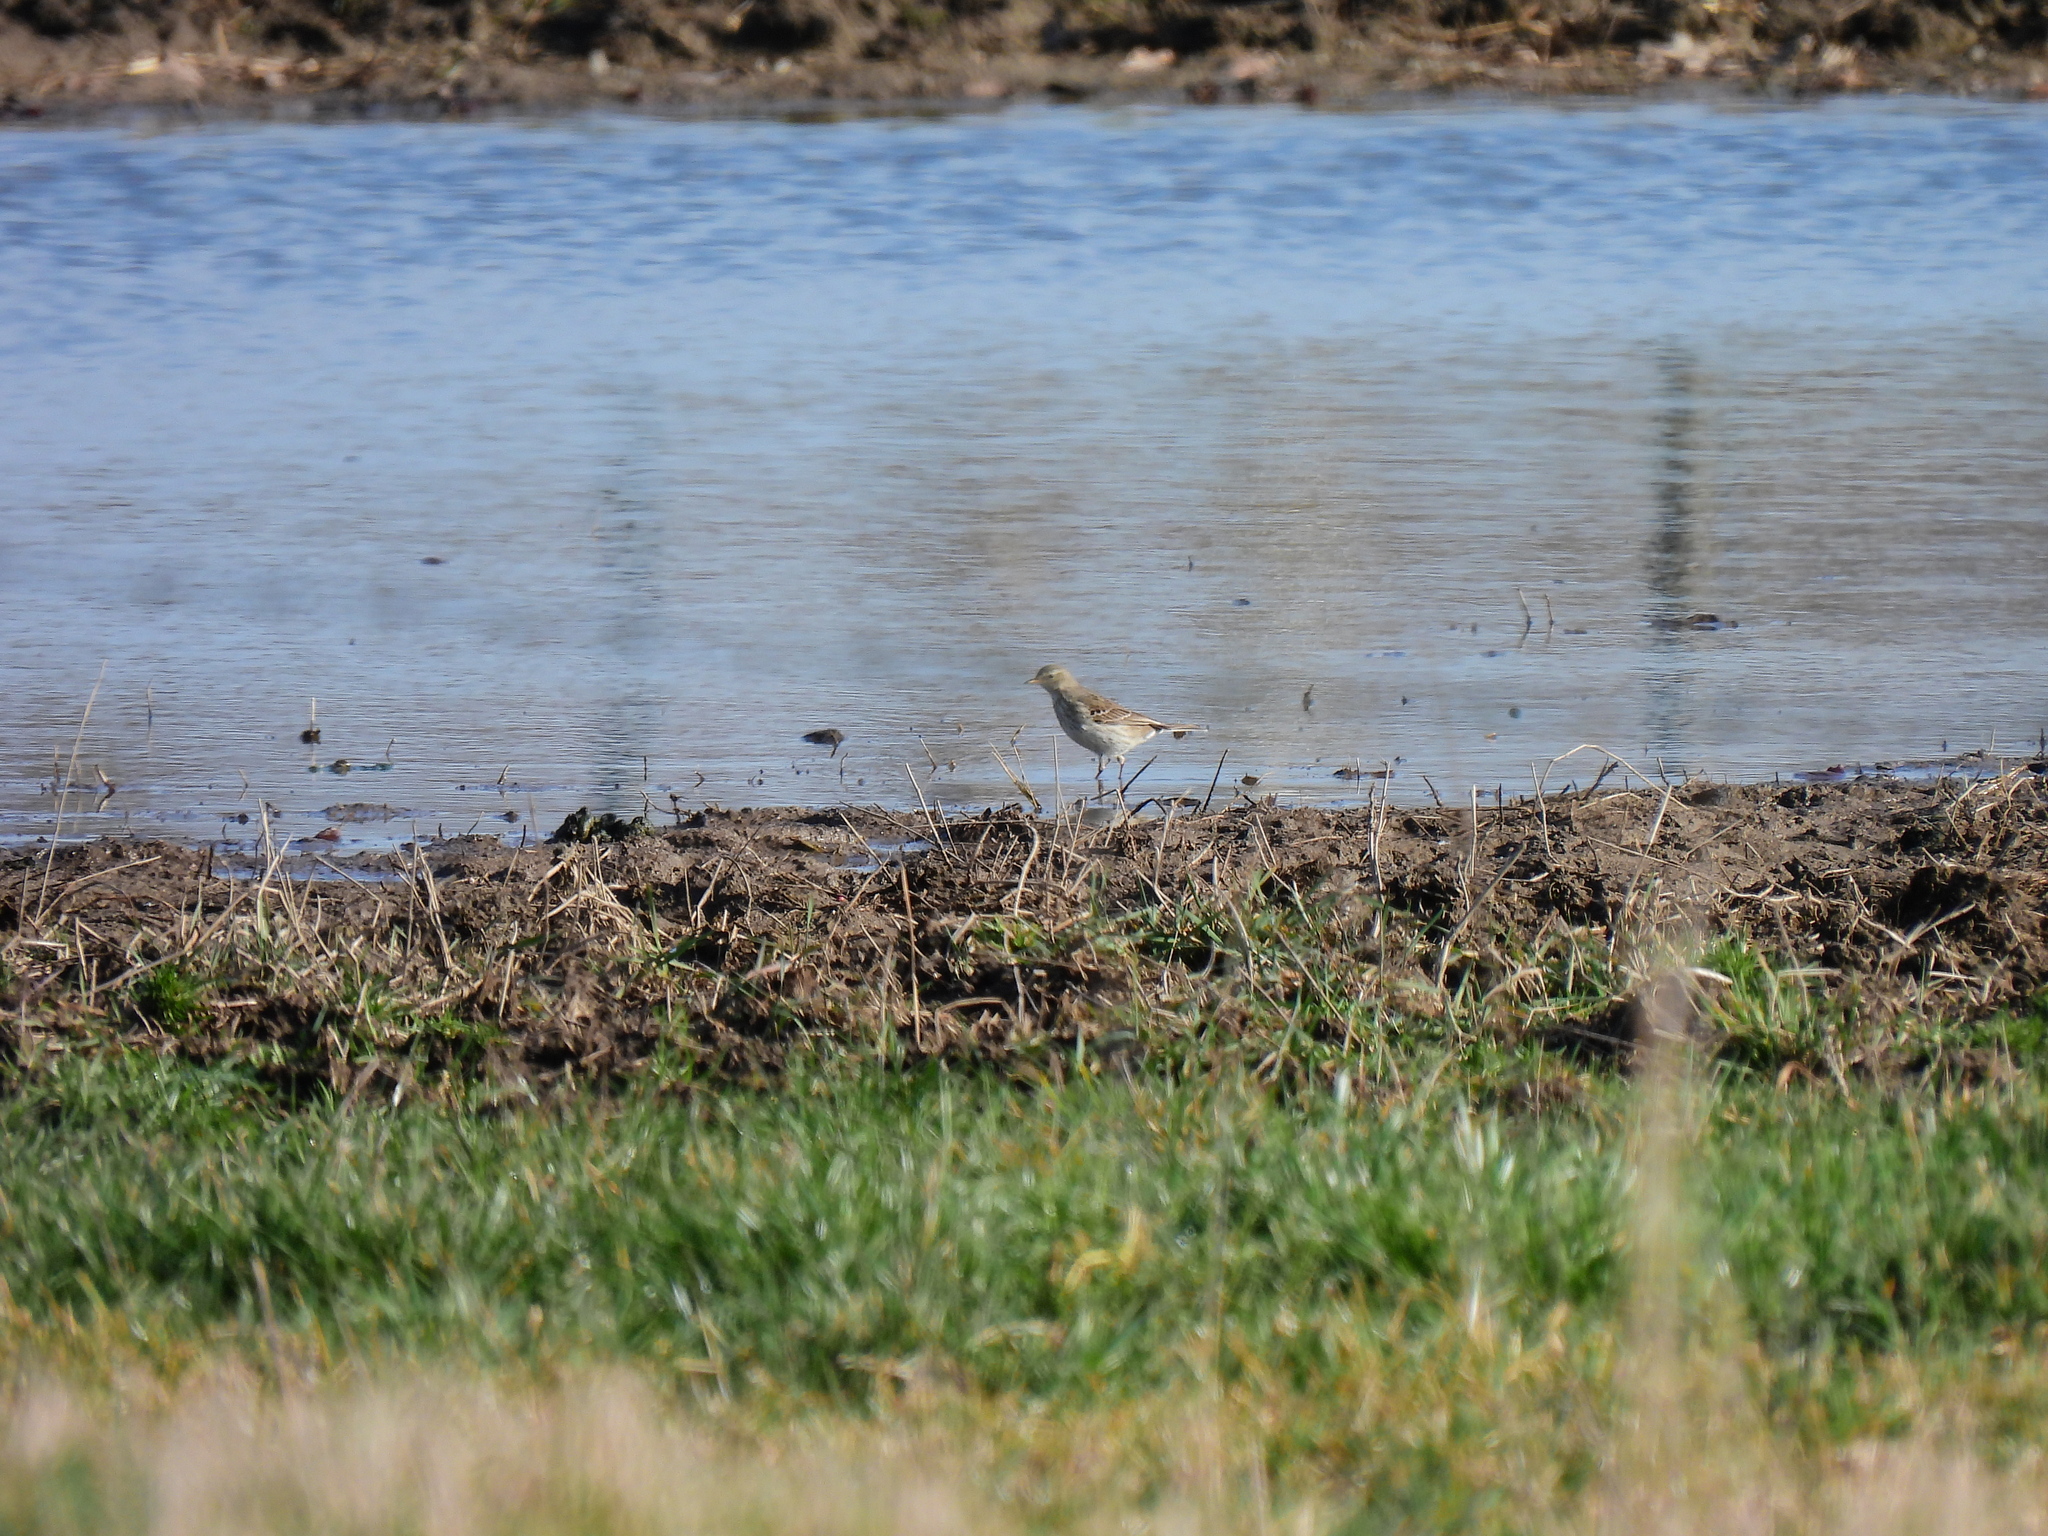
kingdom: Animalia
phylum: Chordata
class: Aves
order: Passeriformes
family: Motacillidae
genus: Anthus
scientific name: Anthus spinoletta
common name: Water pipit
